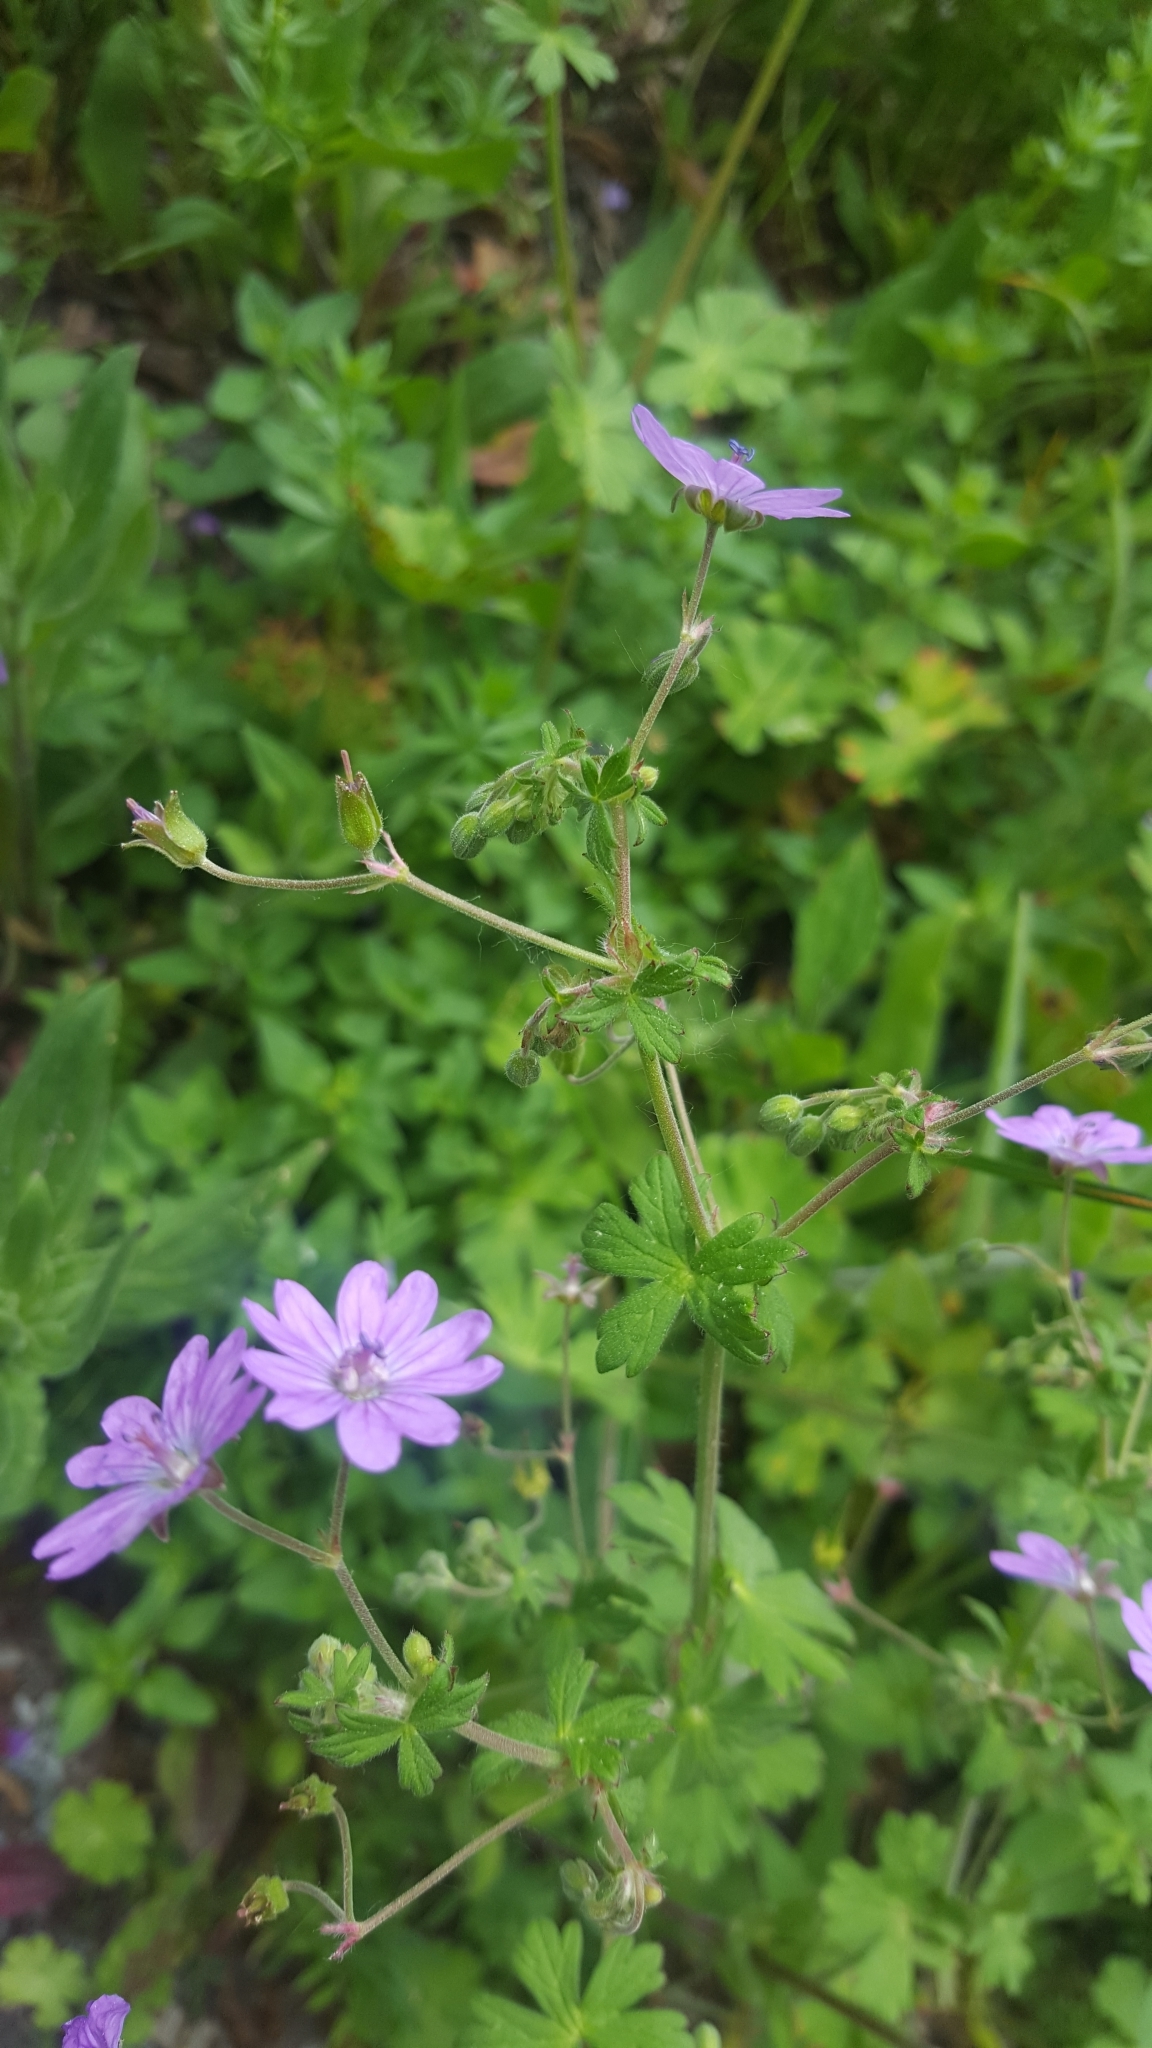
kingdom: Plantae
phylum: Tracheophyta
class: Magnoliopsida
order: Geraniales
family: Geraniaceae
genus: Geranium
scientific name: Geranium pyrenaicum
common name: Hedgerow crane's-bill
